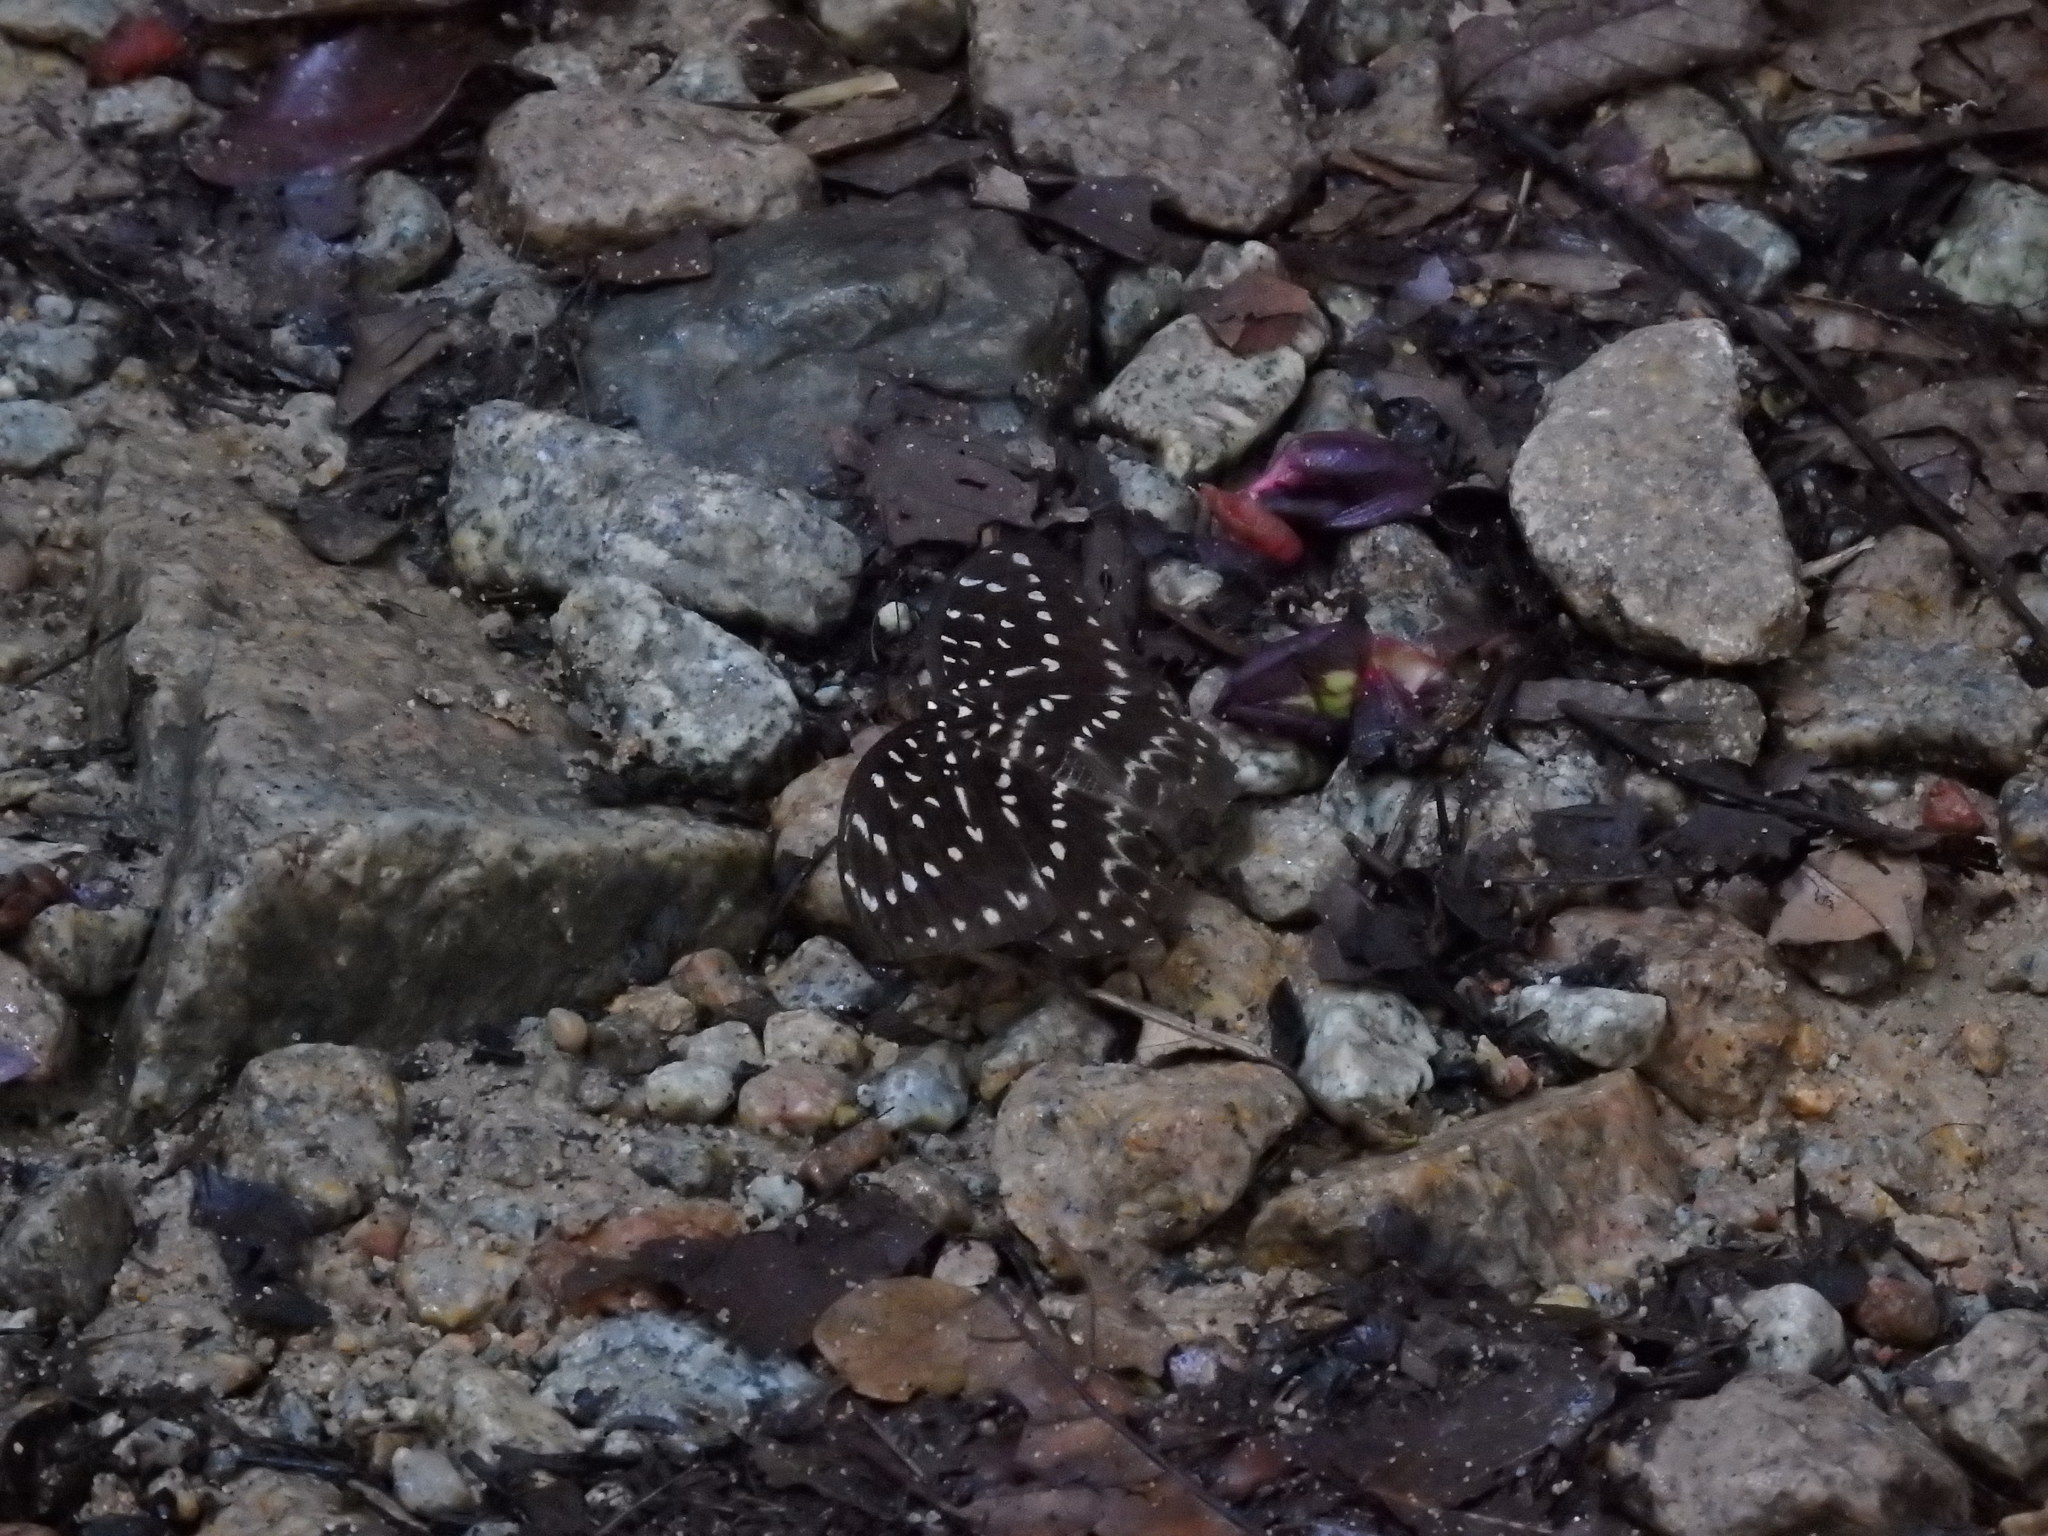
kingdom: Animalia
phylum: Arthropoda
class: Insecta
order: Lepidoptera
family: Nymphalidae
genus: Lexias
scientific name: Lexias pardalis
